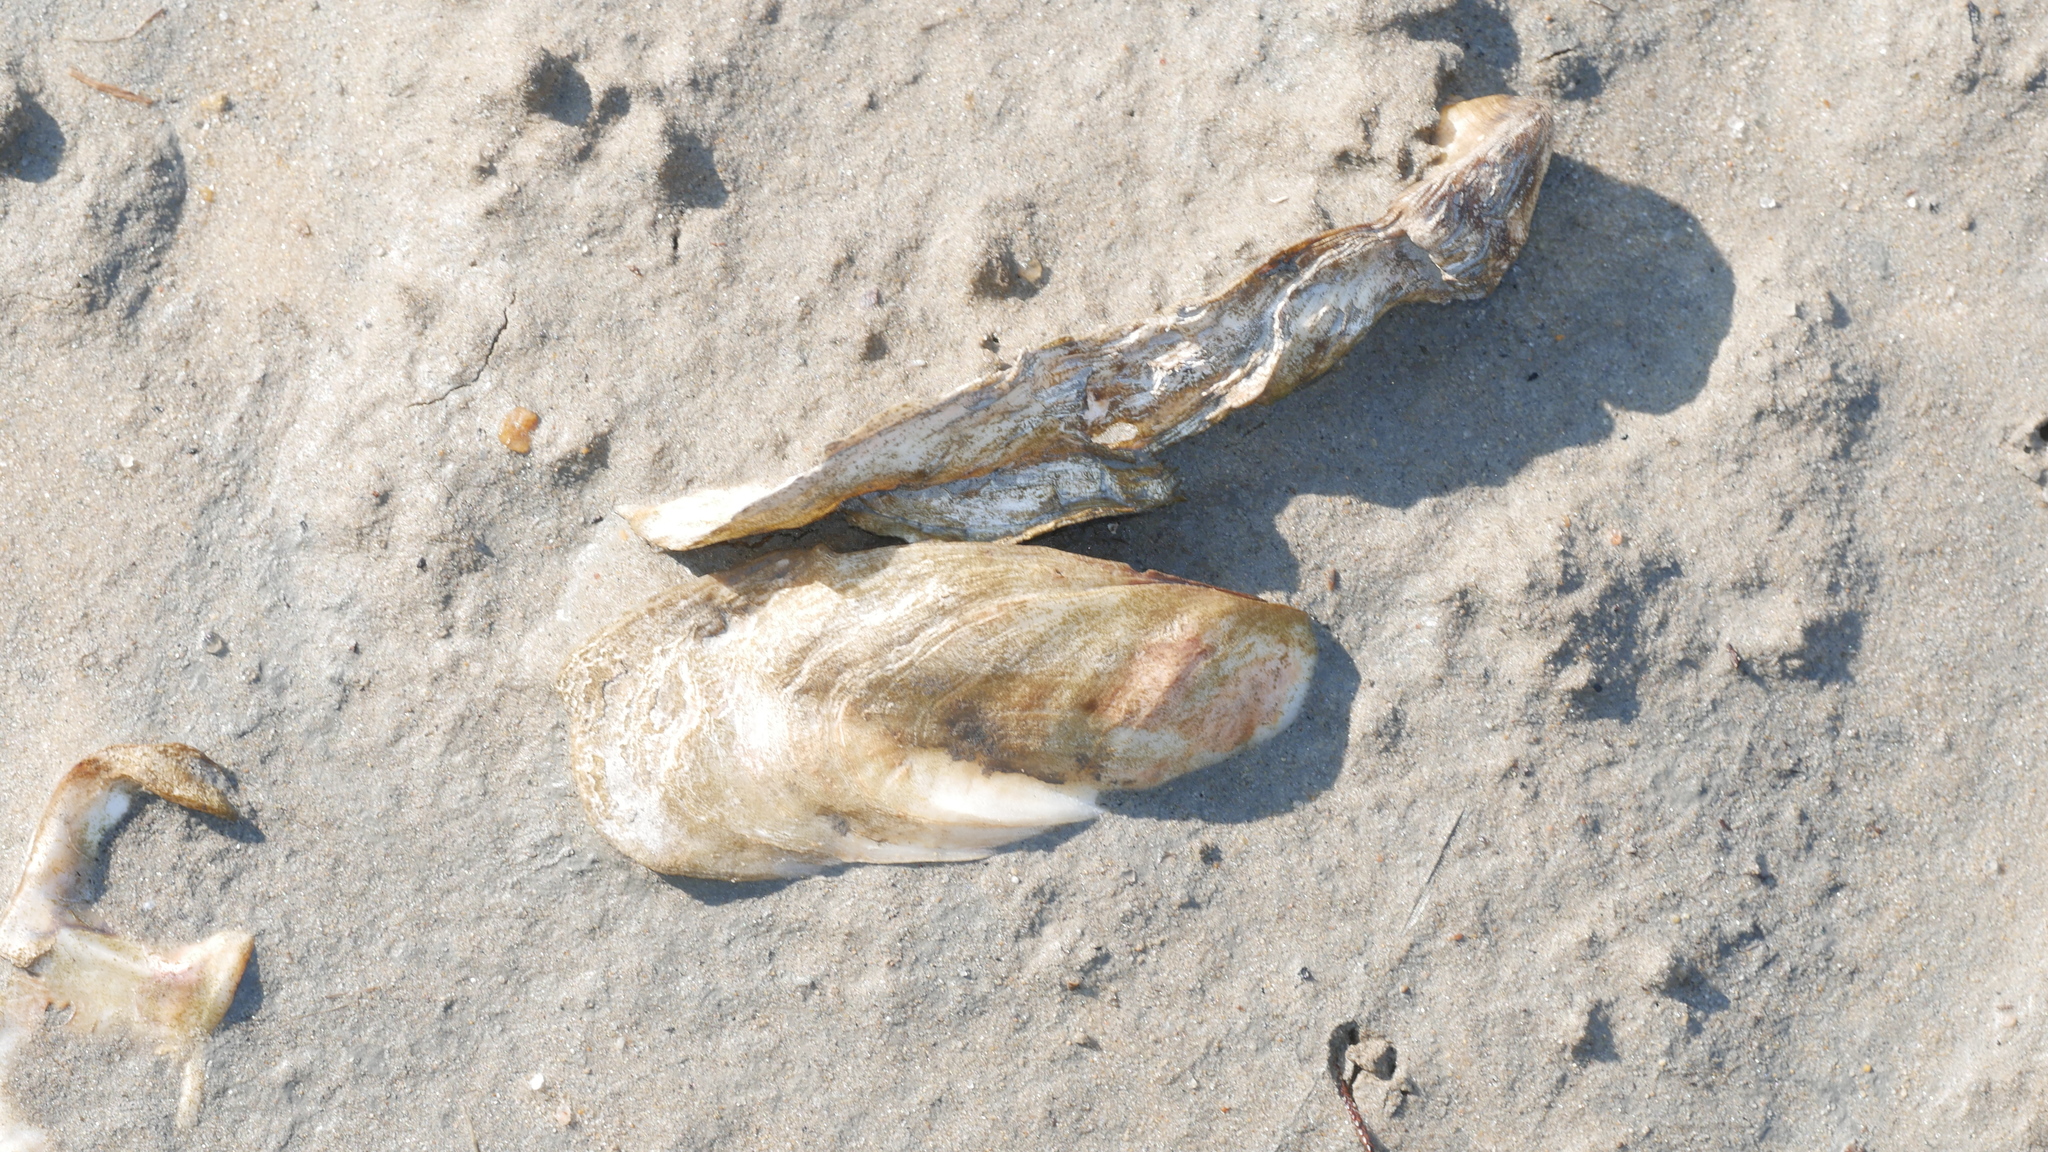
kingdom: Animalia
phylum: Mollusca
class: Bivalvia
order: Ostreida
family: Ostreidae
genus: Crassostrea
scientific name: Crassostrea virginica
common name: American oyster
